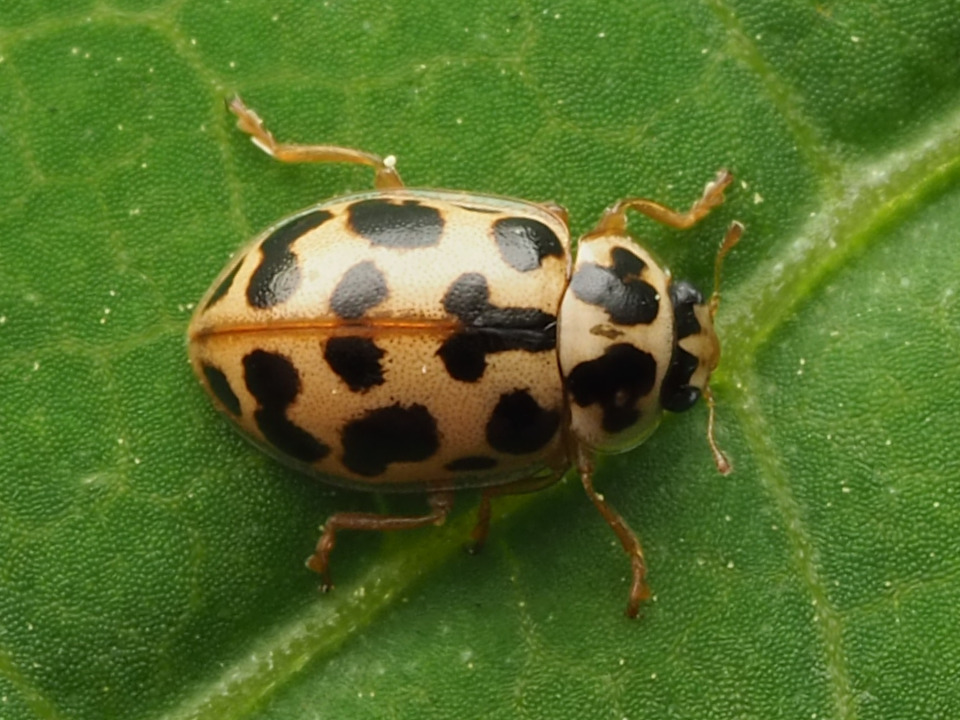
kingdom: Animalia
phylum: Arthropoda
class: Insecta
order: Coleoptera
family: Coccinellidae
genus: Anisosticta
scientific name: Anisosticta bitriangularis
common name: Marsh lady beetle
